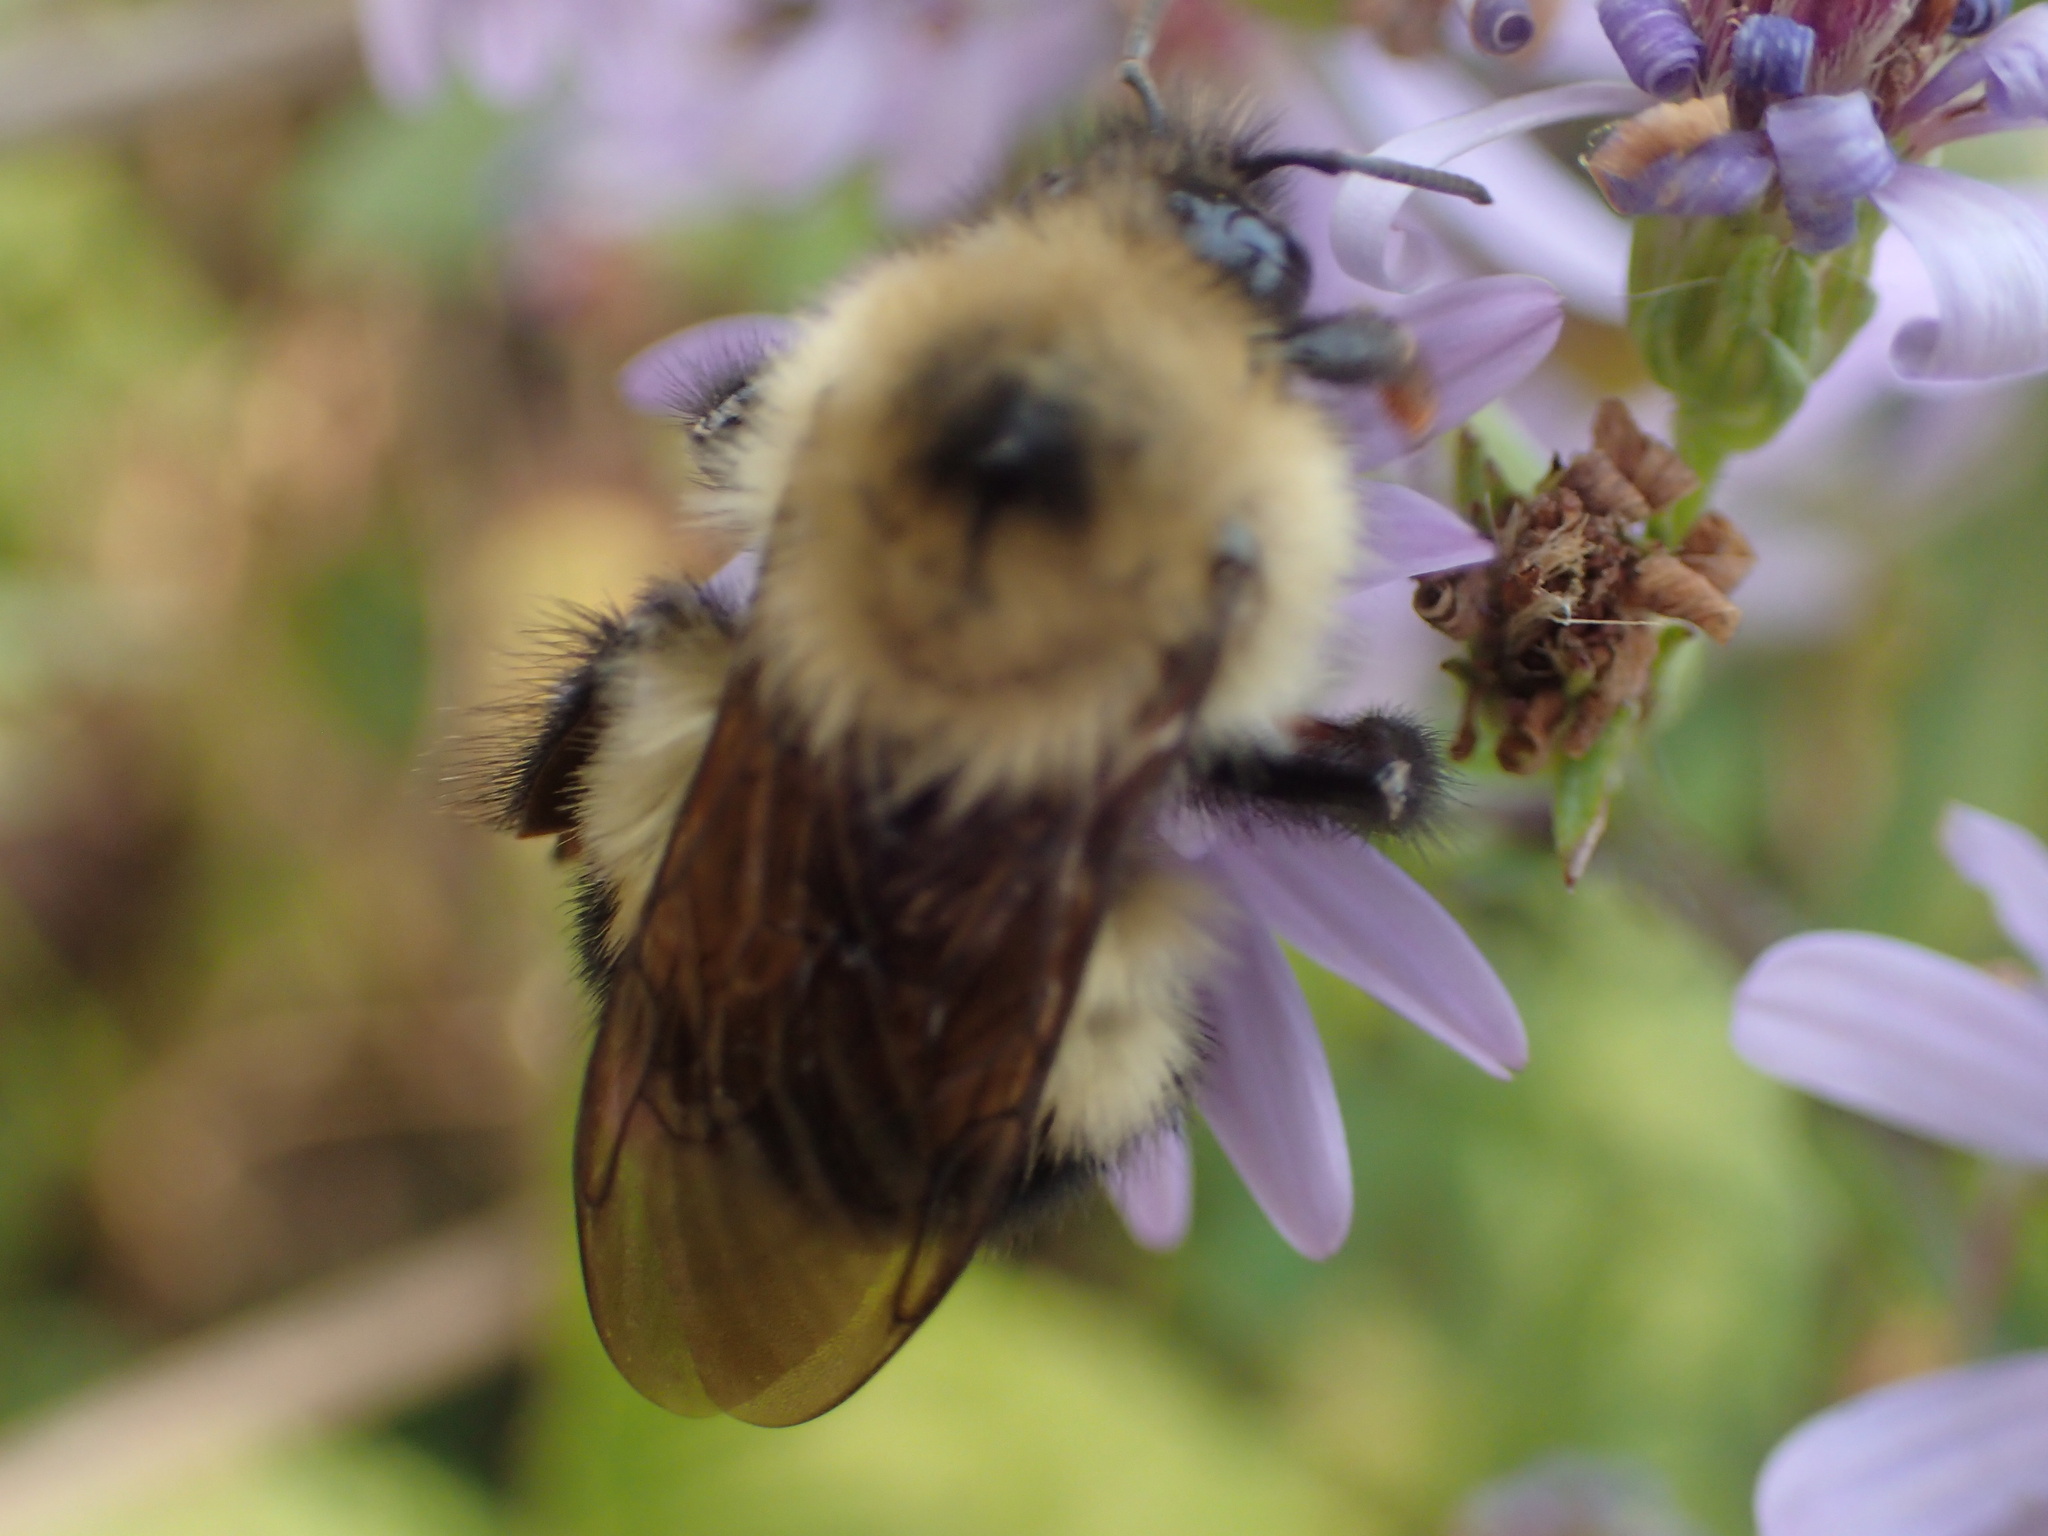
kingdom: Animalia
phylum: Arthropoda
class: Insecta
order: Hymenoptera
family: Apidae
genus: Bombus
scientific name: Bombus vagans
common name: Half-black bumble bee
